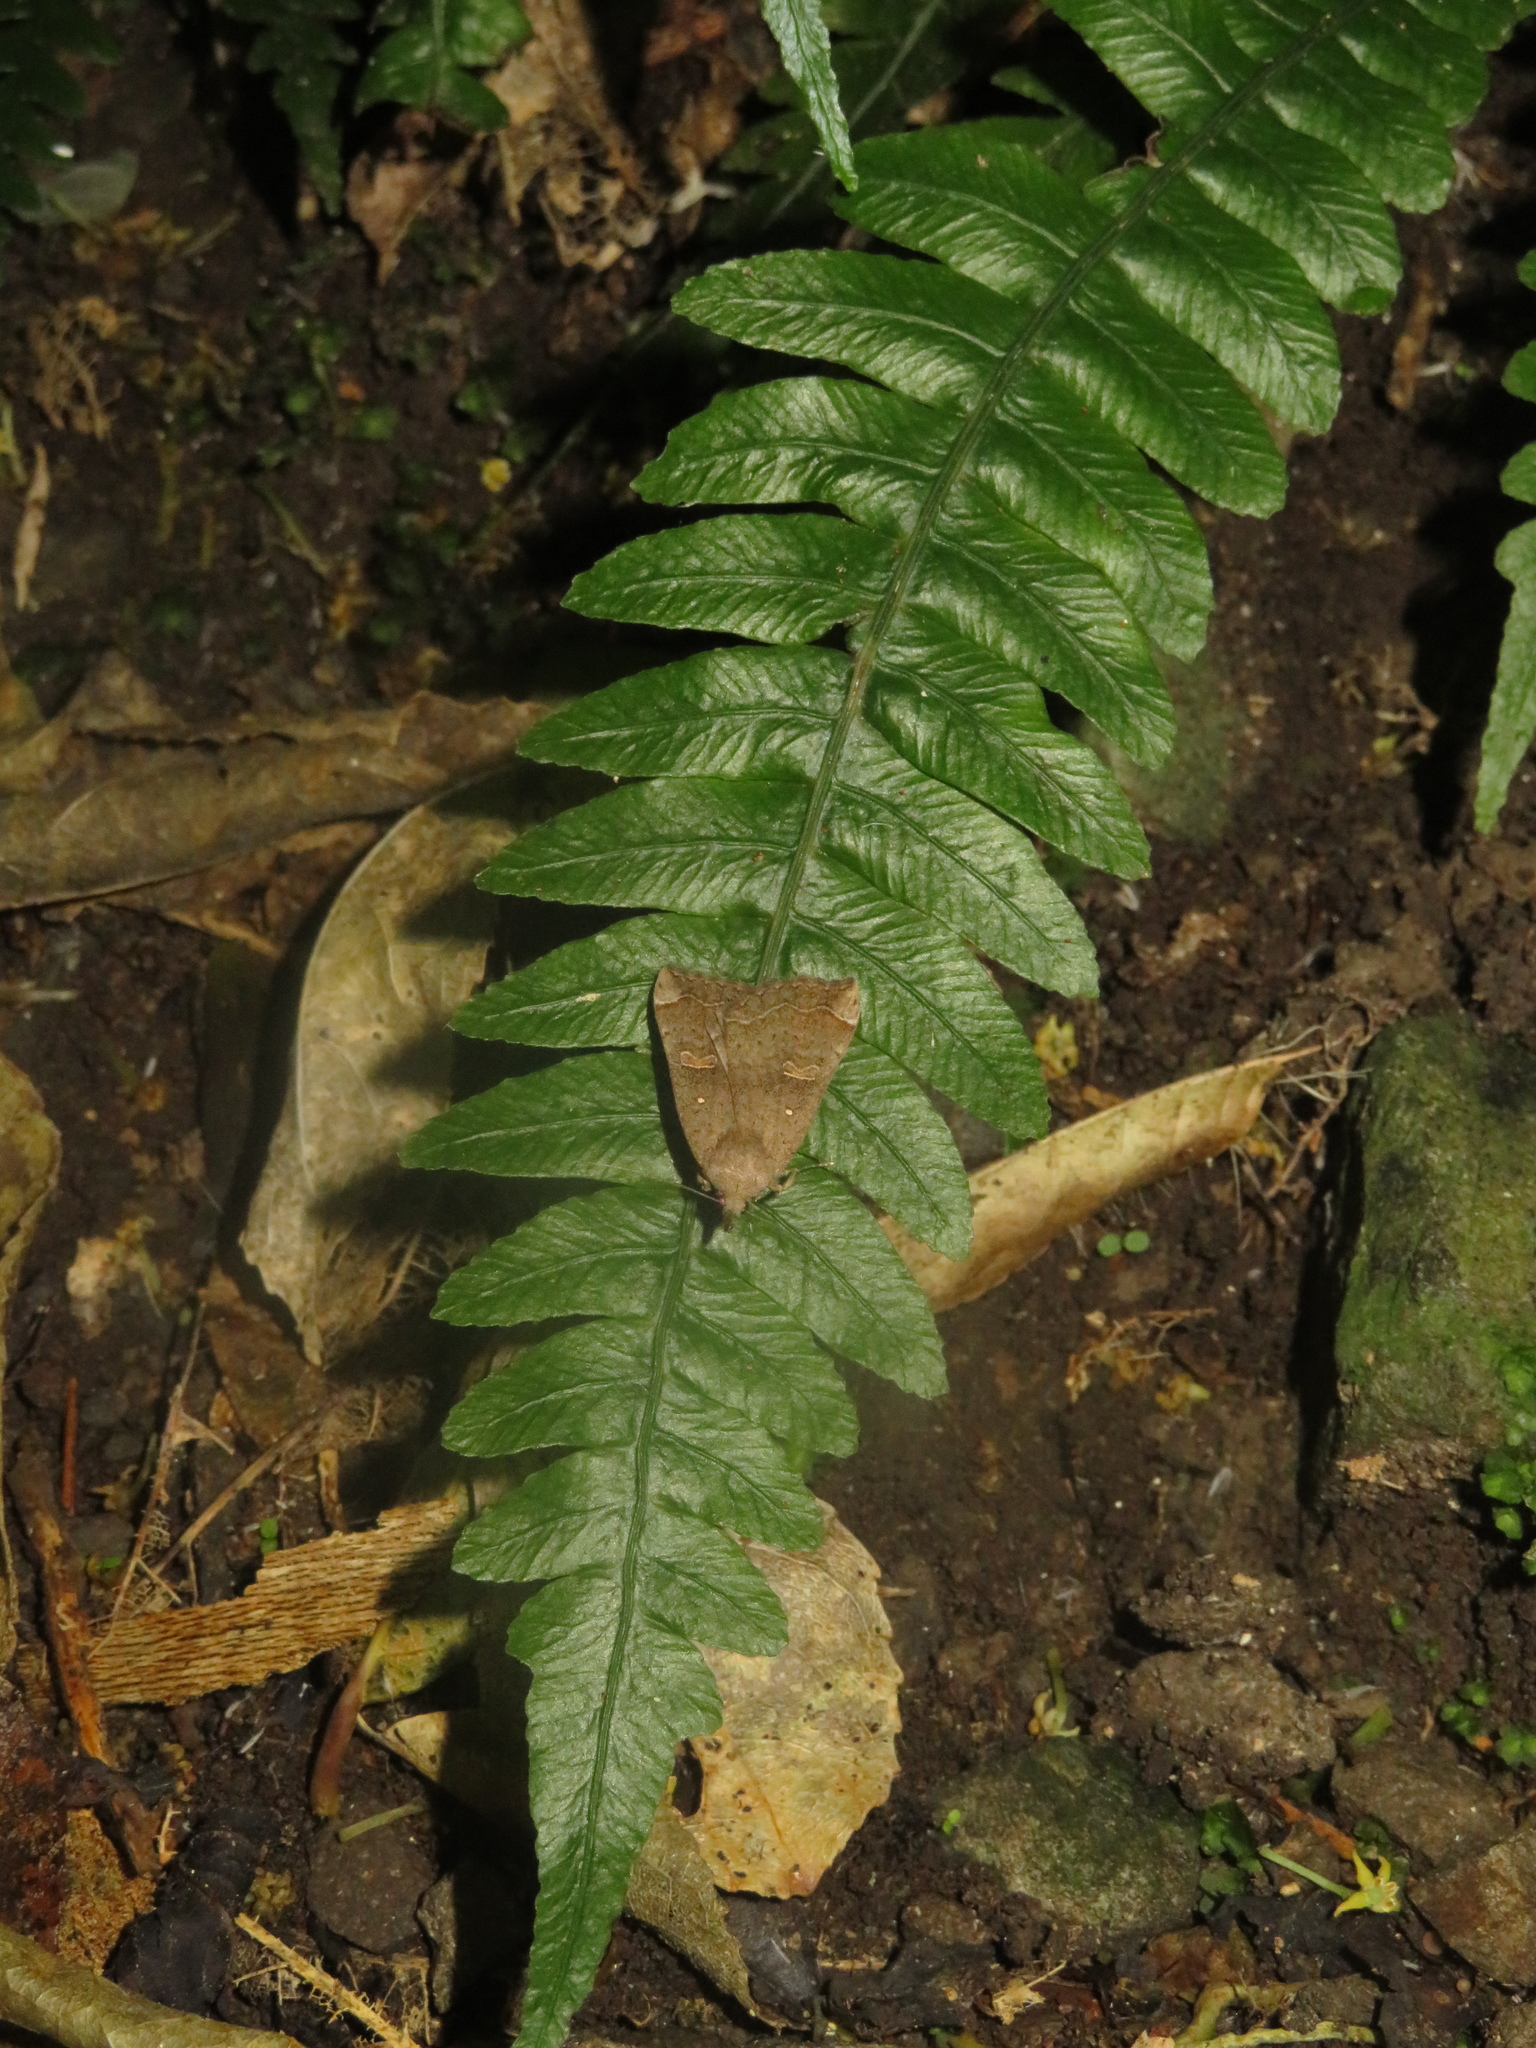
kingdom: Animalia
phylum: Arthropoda
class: Insecta
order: Lepidoptera
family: Erebidae
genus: Rhapsa
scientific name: Rhapsa scotosialis
